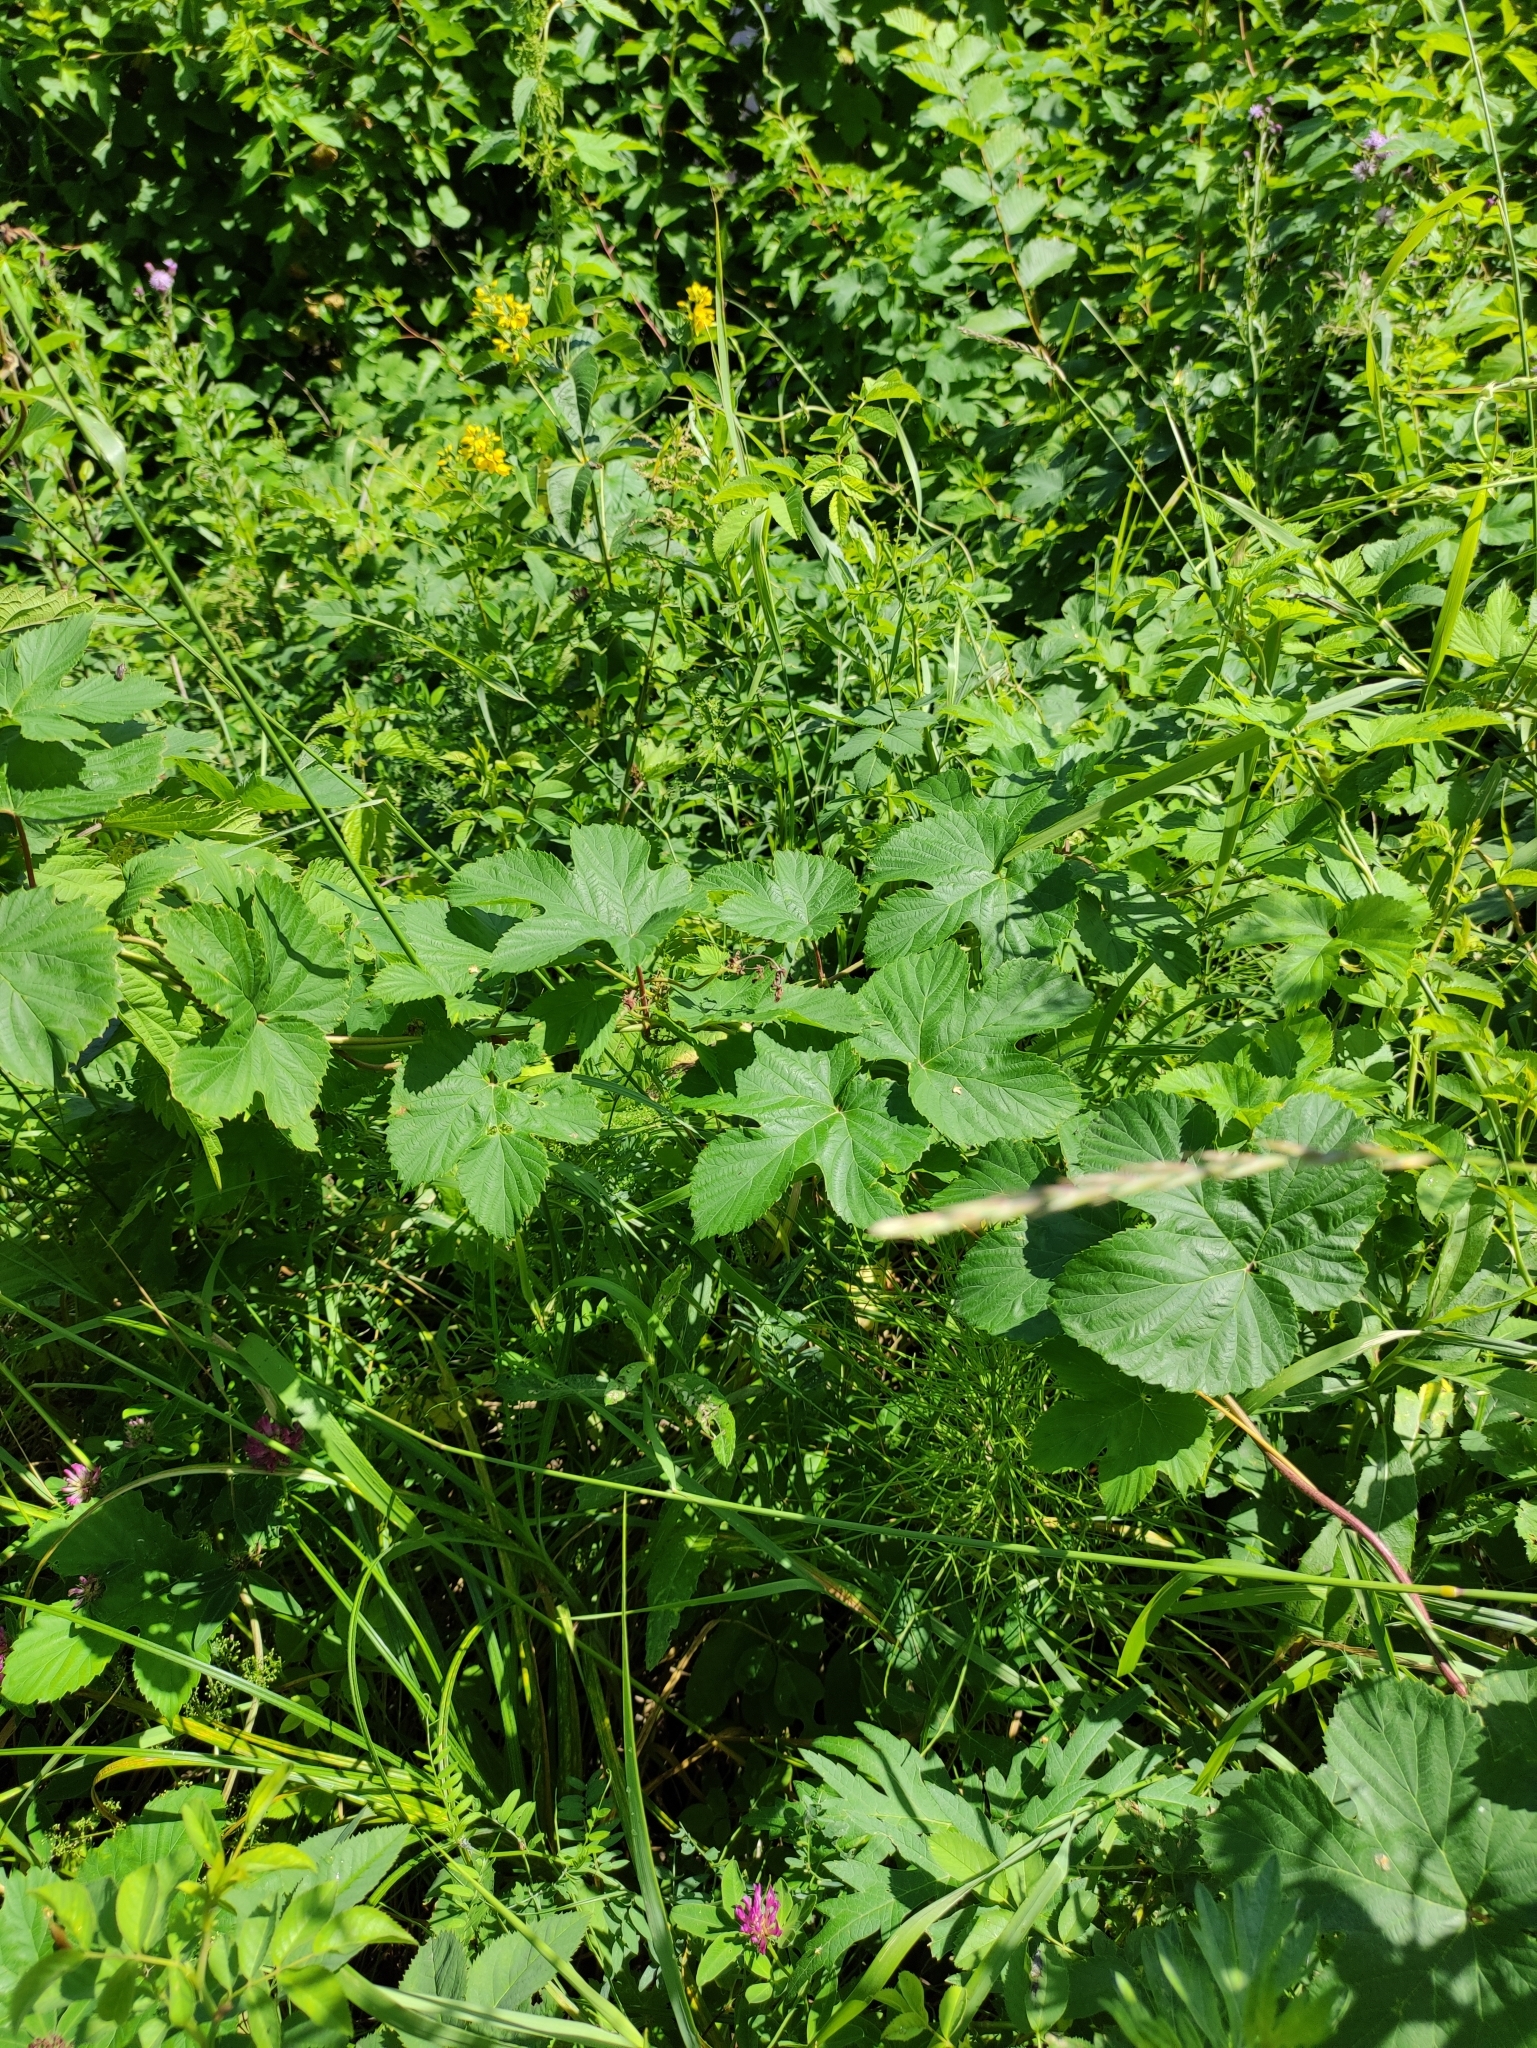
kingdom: Plantae
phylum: Tracheophyta
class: Magnoliopsida
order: Rosales
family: Cannabaceae
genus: Humulus
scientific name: Humulus lupulus
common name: Hop
